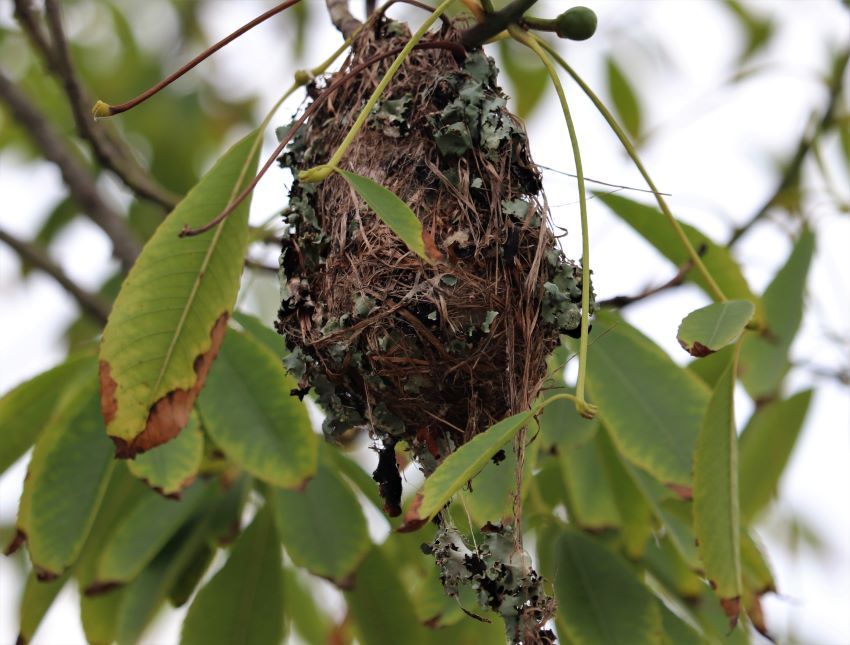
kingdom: Animalia
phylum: Chordata
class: Aves
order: Passeriformes
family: Nectariniidae
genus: Cinnyris
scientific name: Cinnyris afer
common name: Greater double-collared sunbird
